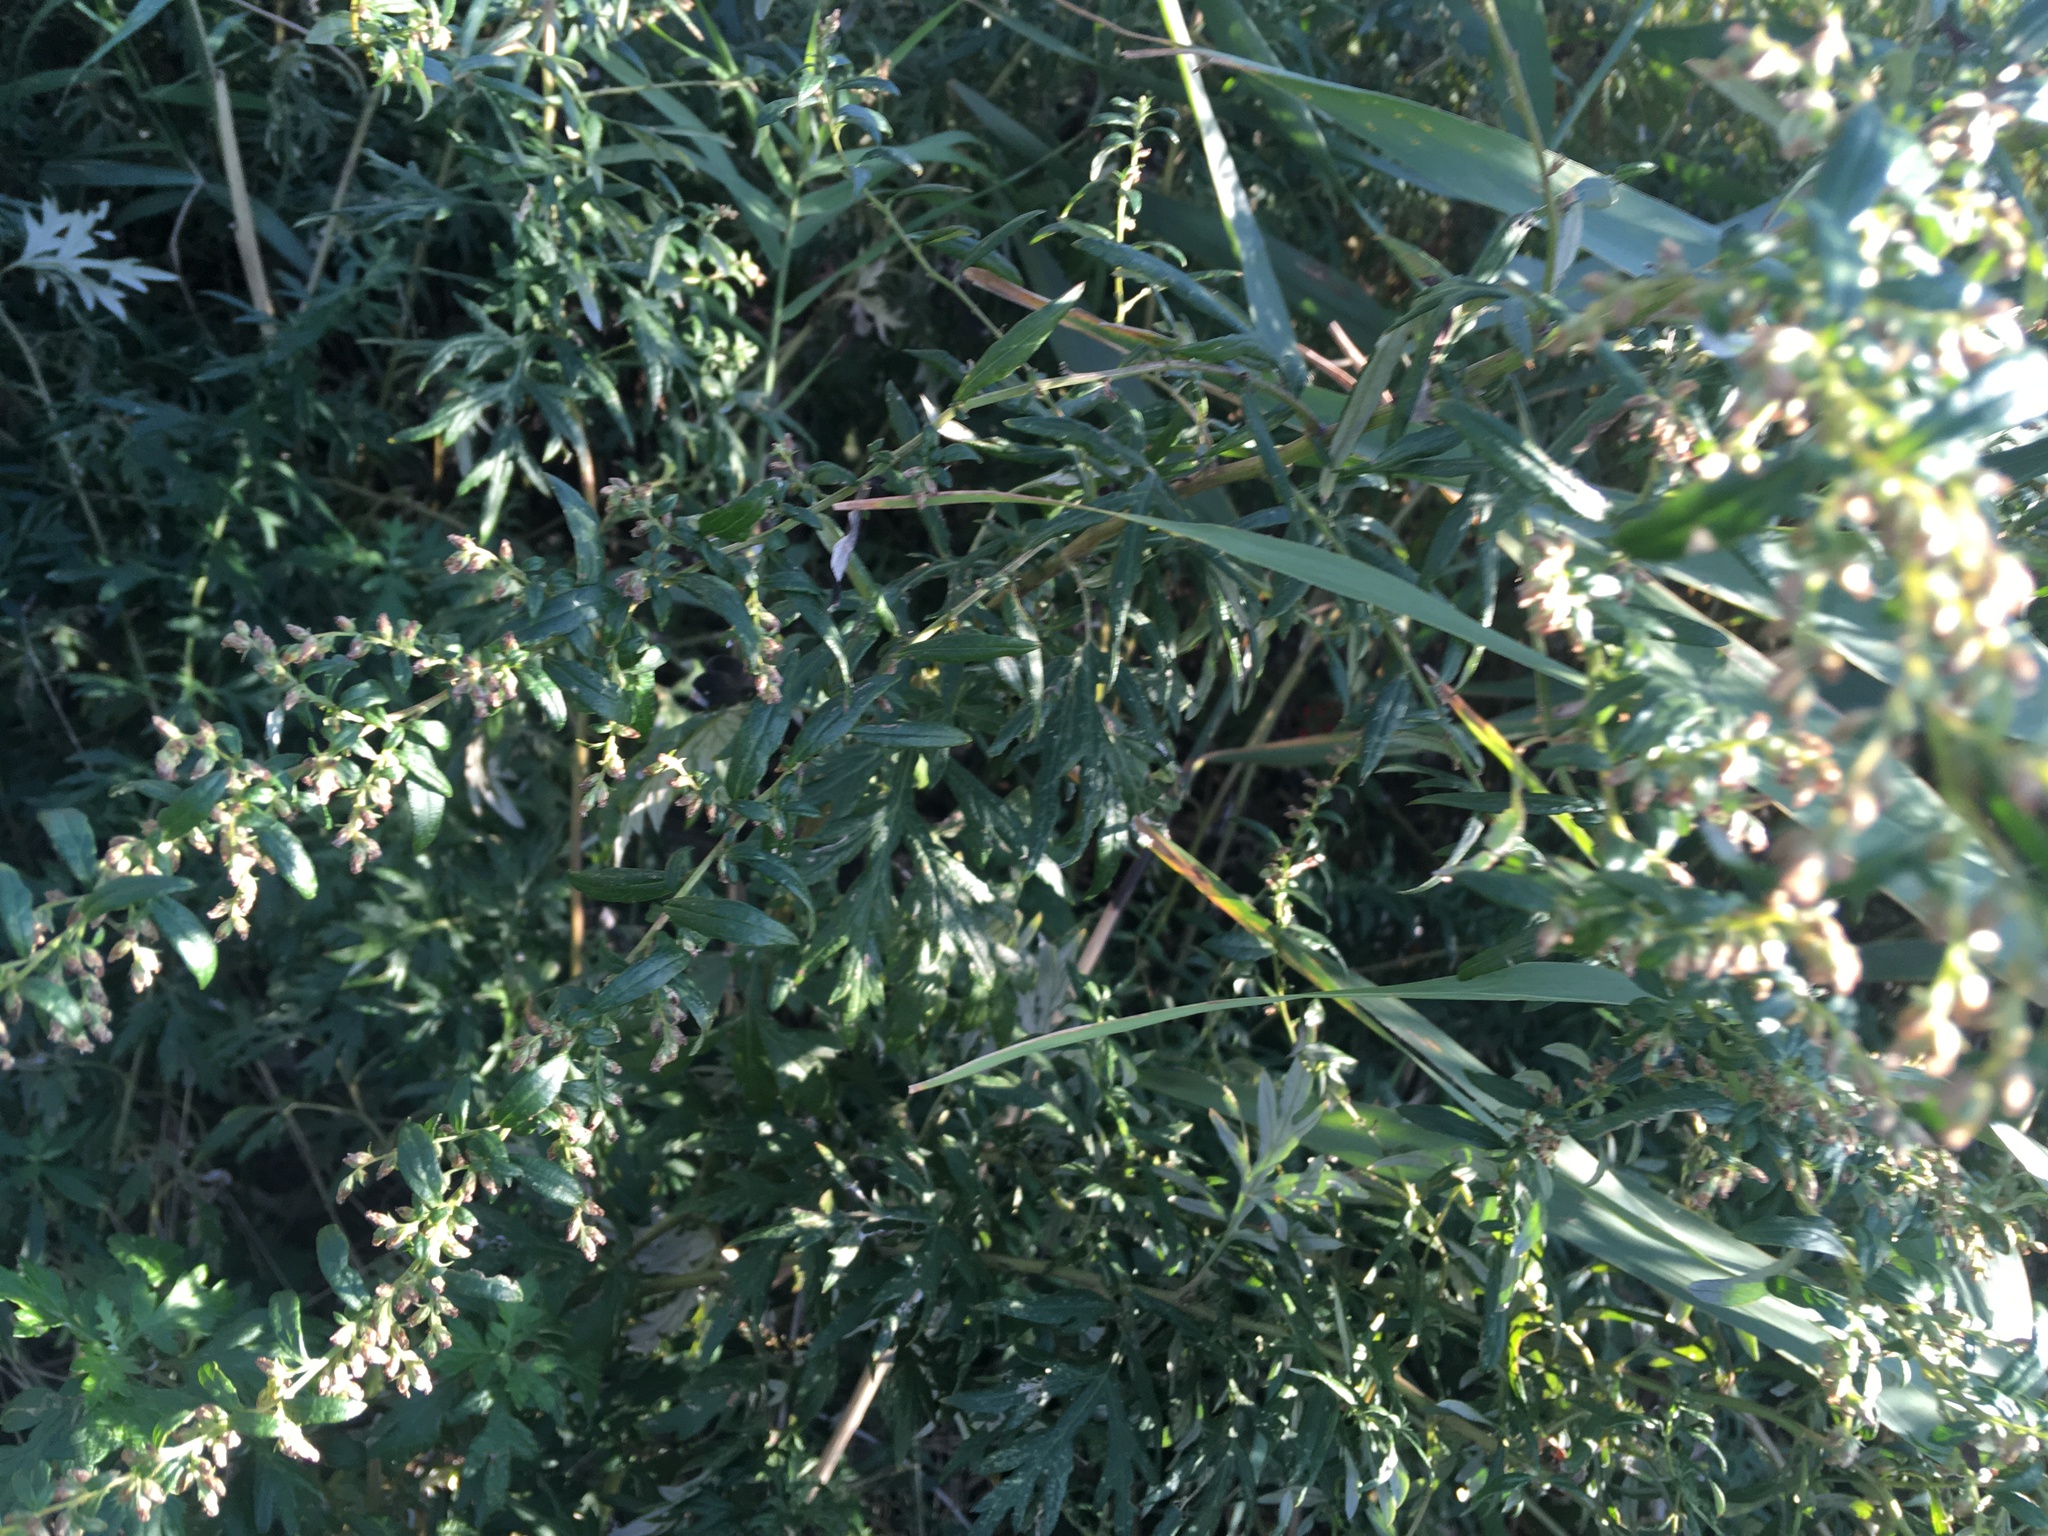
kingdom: Plantae
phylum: Tracheophyta
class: Magnoliopsida
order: Asterales
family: Asteraceae
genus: Artemisia
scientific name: Artemisia vulgaris
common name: Mugwort
